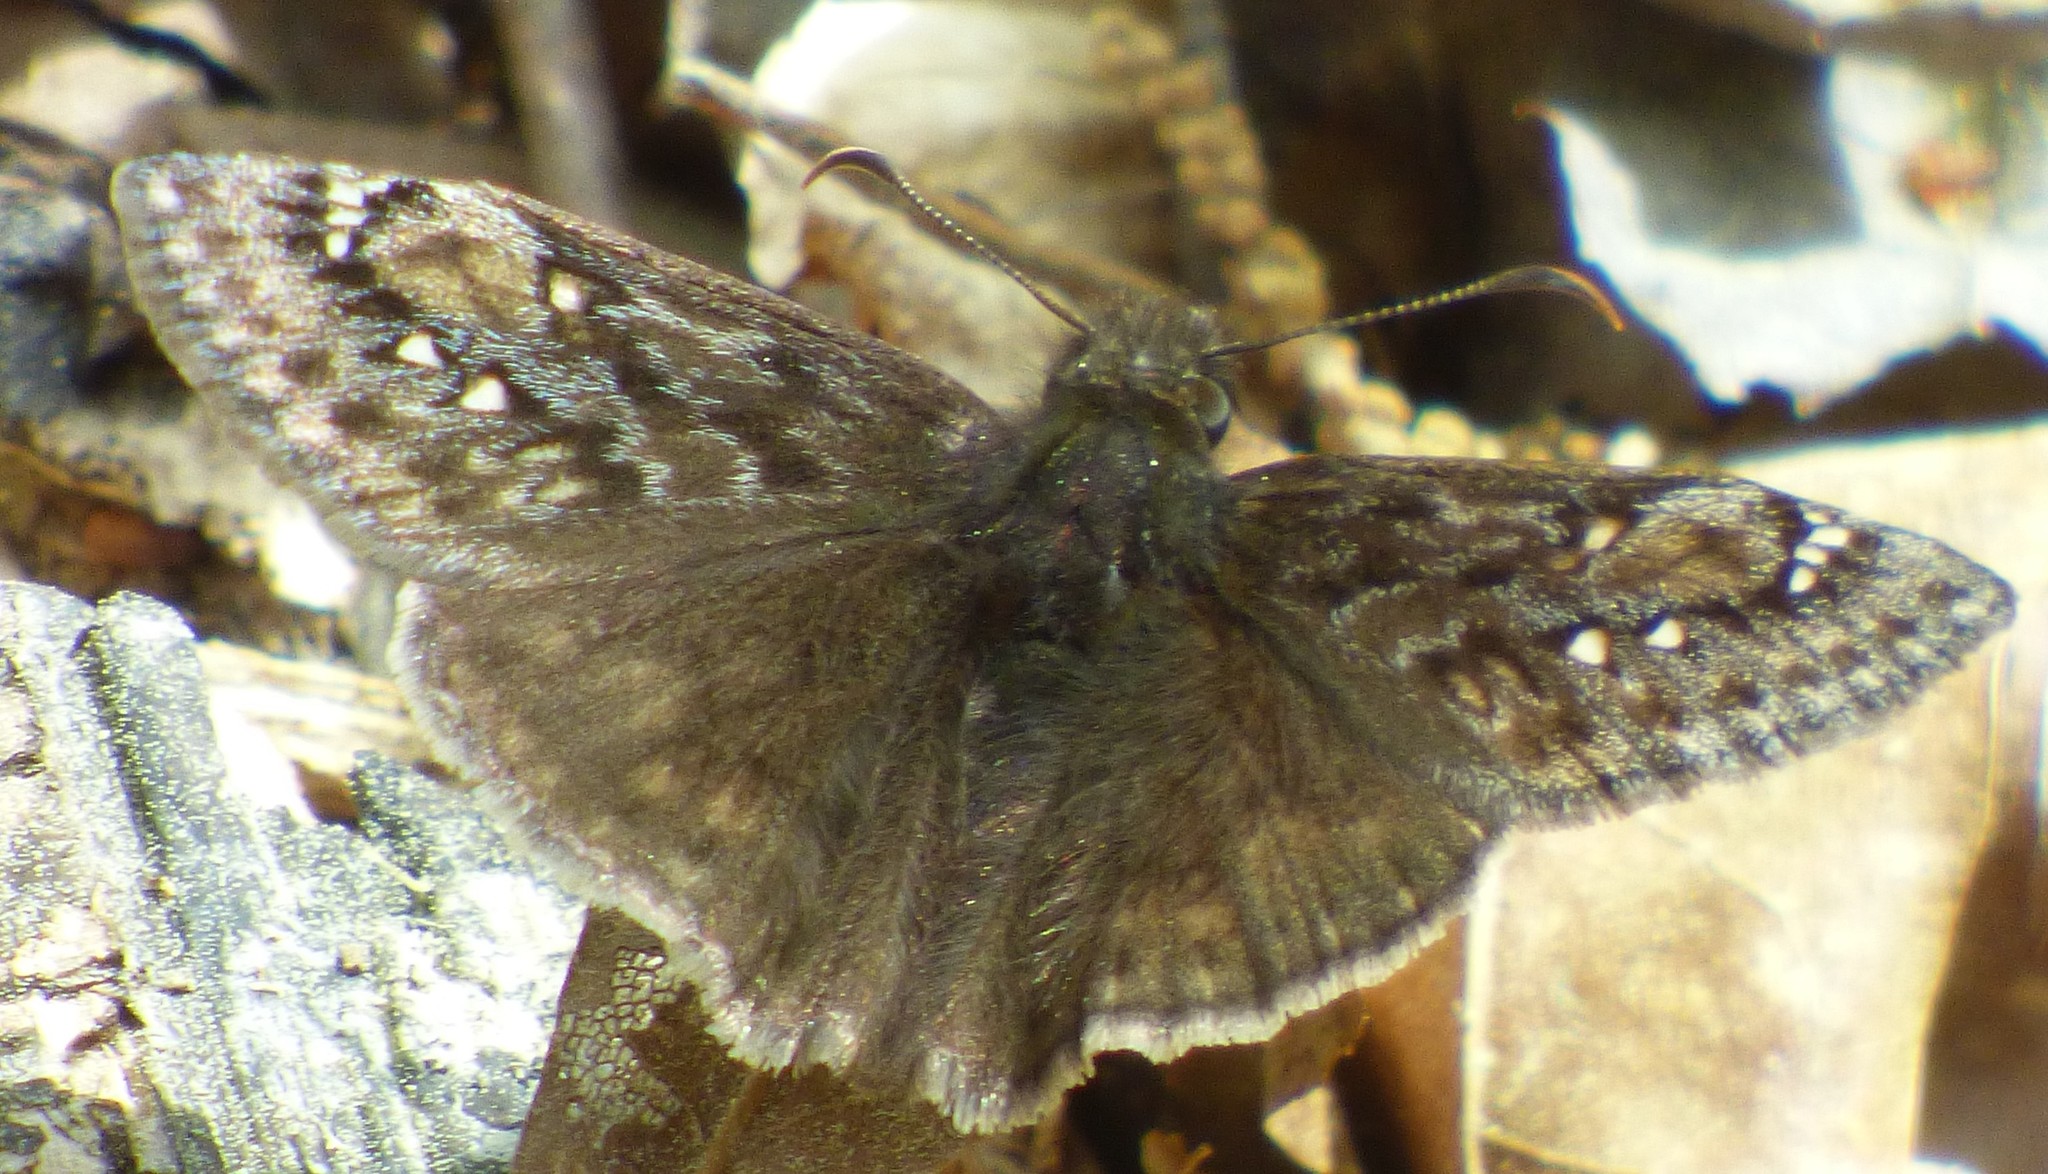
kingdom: Animalia
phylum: Arthropoda
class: Insecta
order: Lepidoptera
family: Hesperiidae
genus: Erynnis
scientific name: Erynnis juvenalis
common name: Juvenal's duskywing
